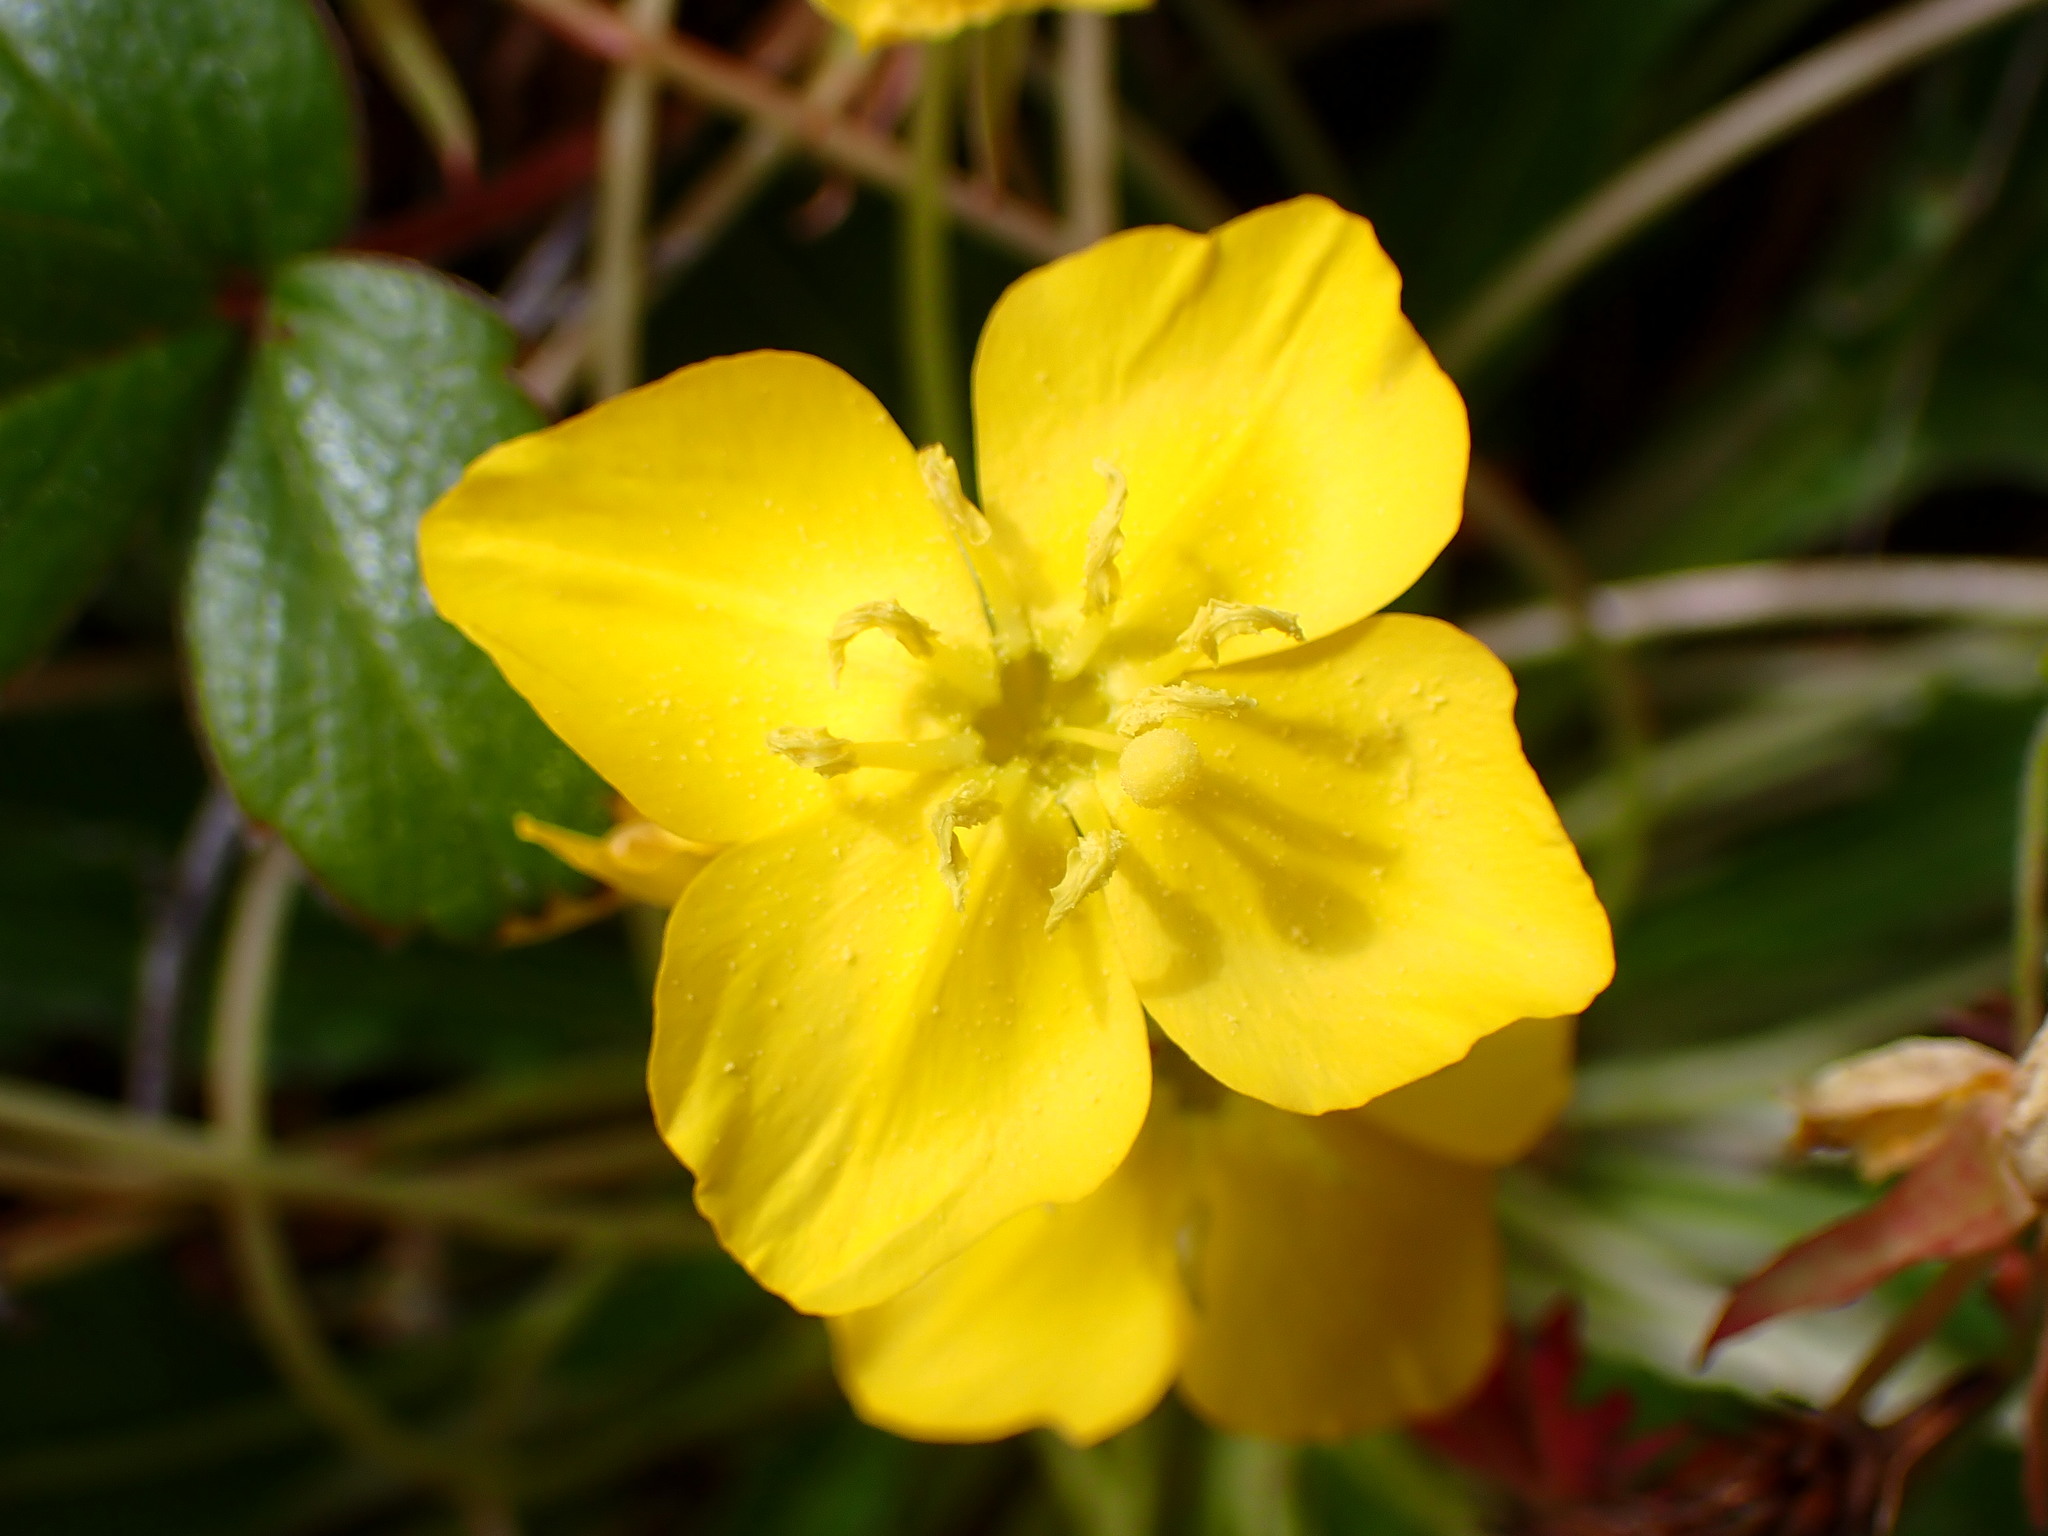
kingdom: Plantae
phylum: Tracheophyta
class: Magnoliopsida
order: Myrtales
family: Onagraceae
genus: Taraxia
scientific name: Taraxia ovata
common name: Goldeneggs
